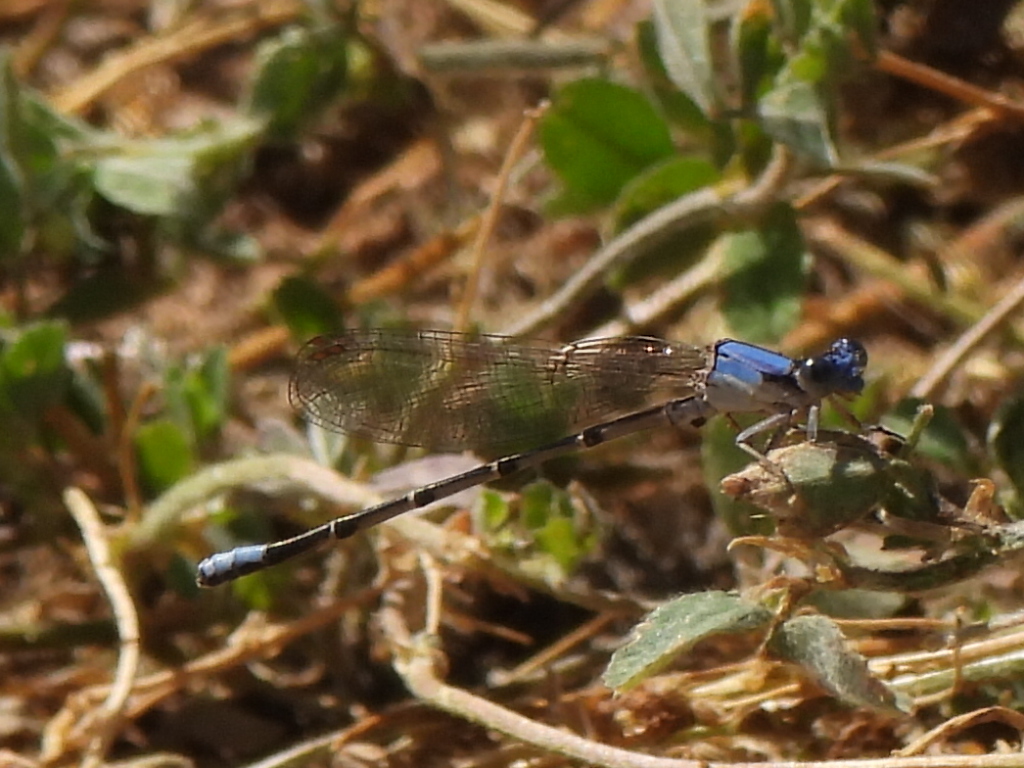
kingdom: Animalia
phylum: Arthropoda
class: Insecta
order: Odonata
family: Coenagrionidae
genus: Argia
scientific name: Argia apicalis
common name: Blue-fronted dancer
